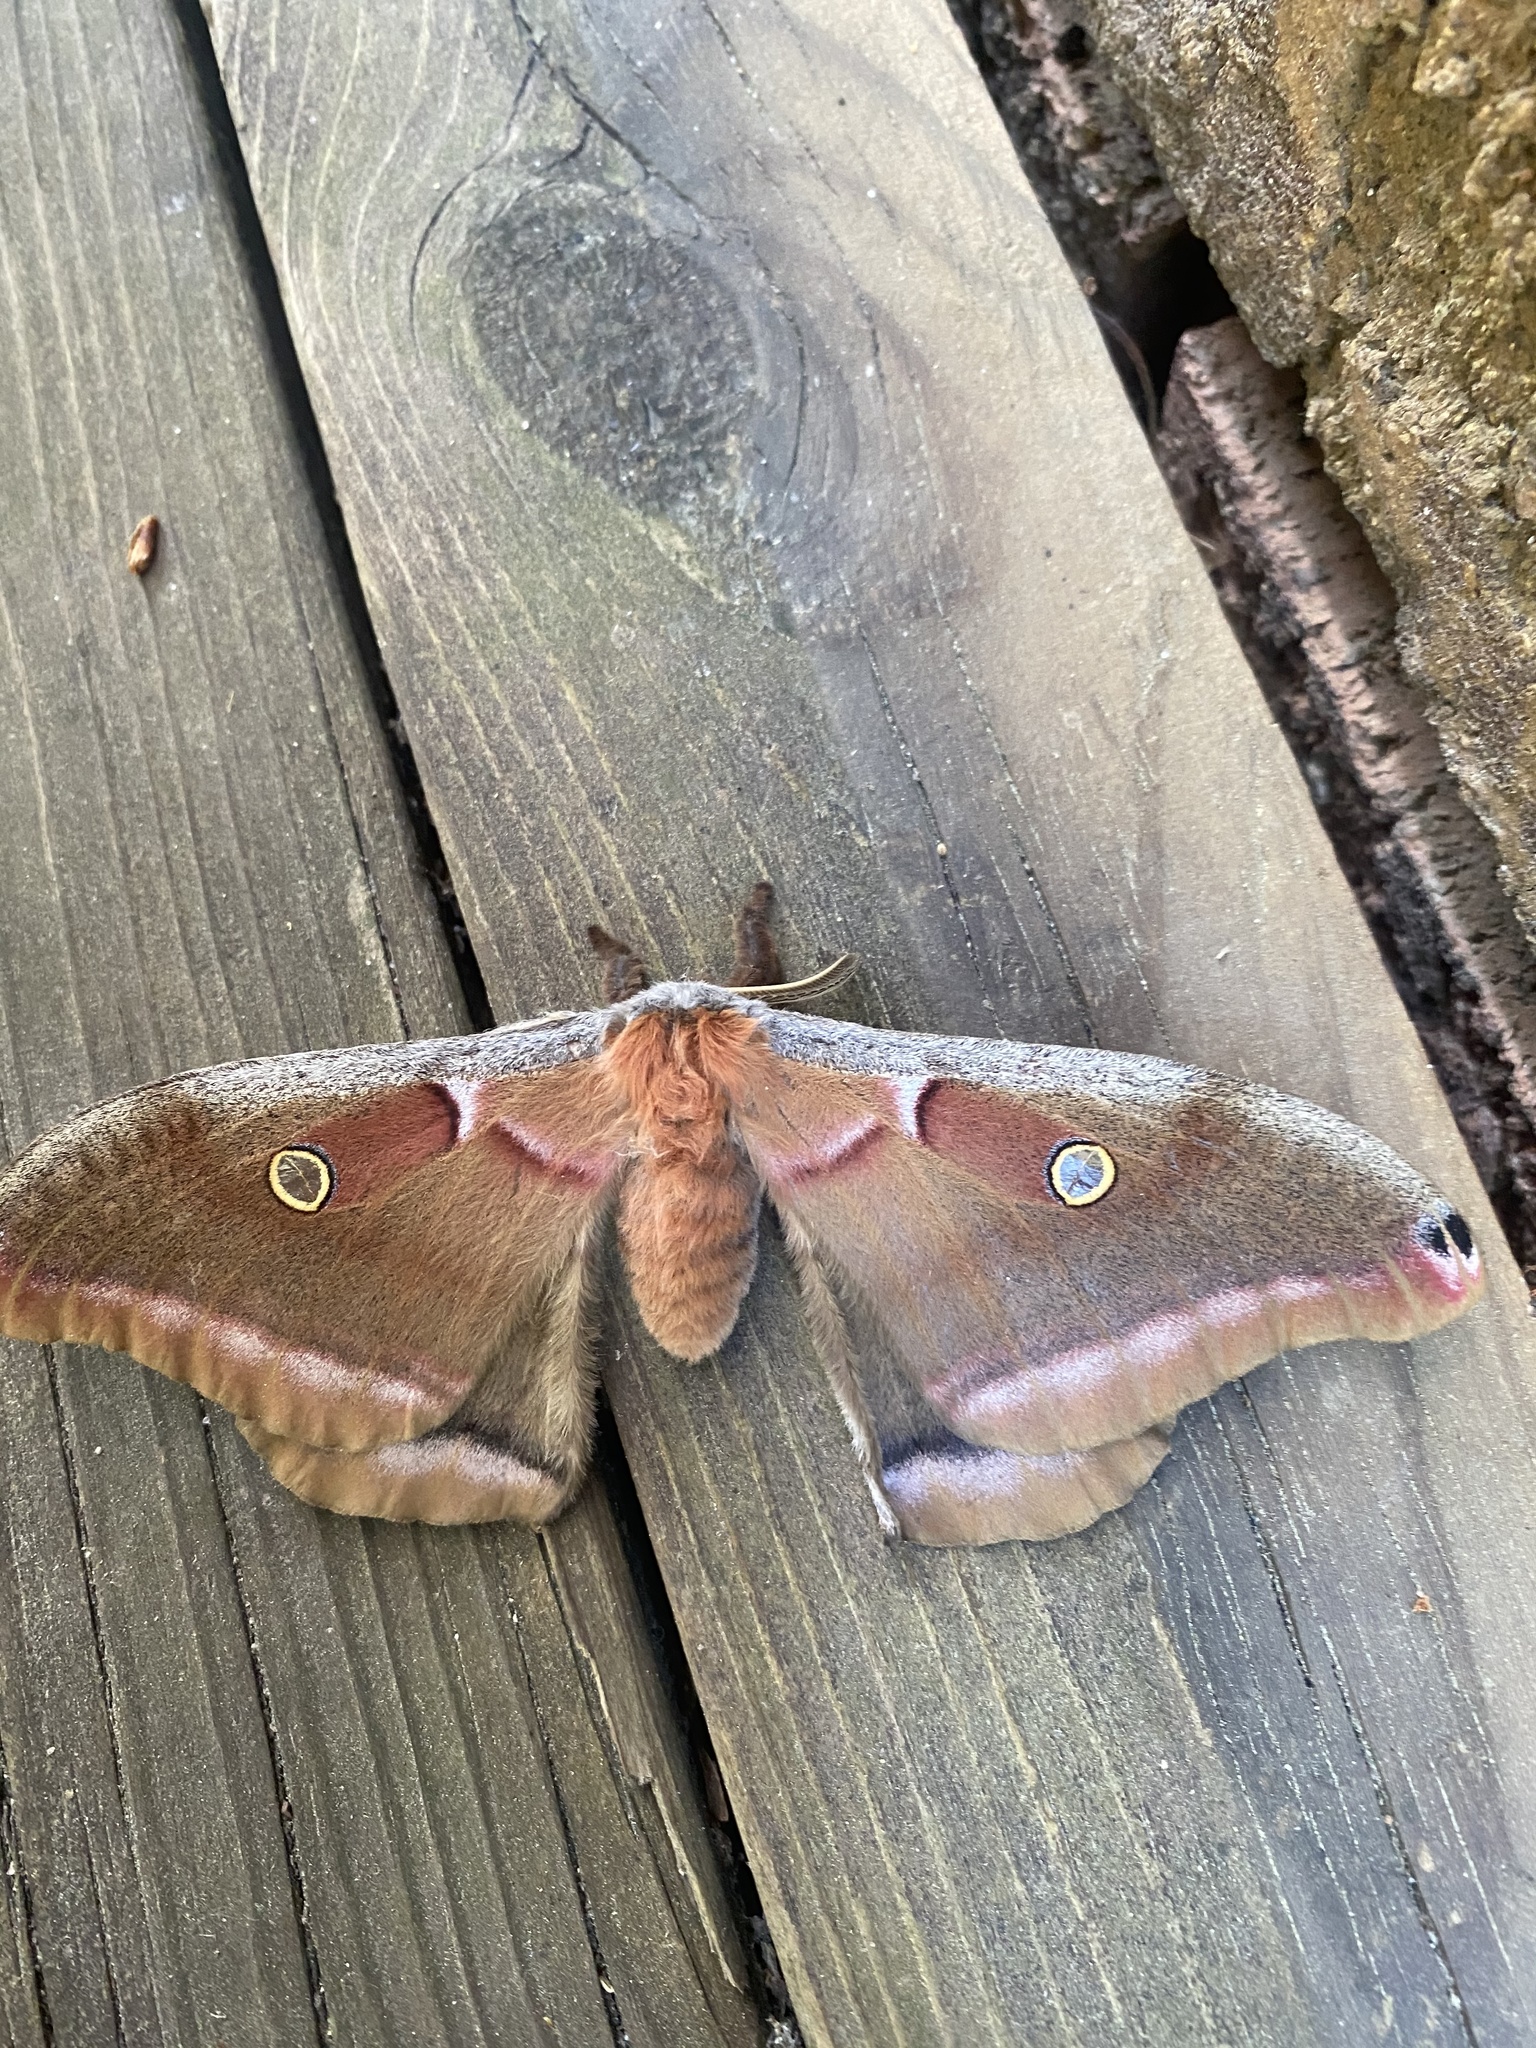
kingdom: Animalia
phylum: Arthropoda
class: Insecta
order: Lepidoptera
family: Saturniidae
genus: Antheraea
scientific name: Antheraea polyphemus
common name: Polyphemus moth
